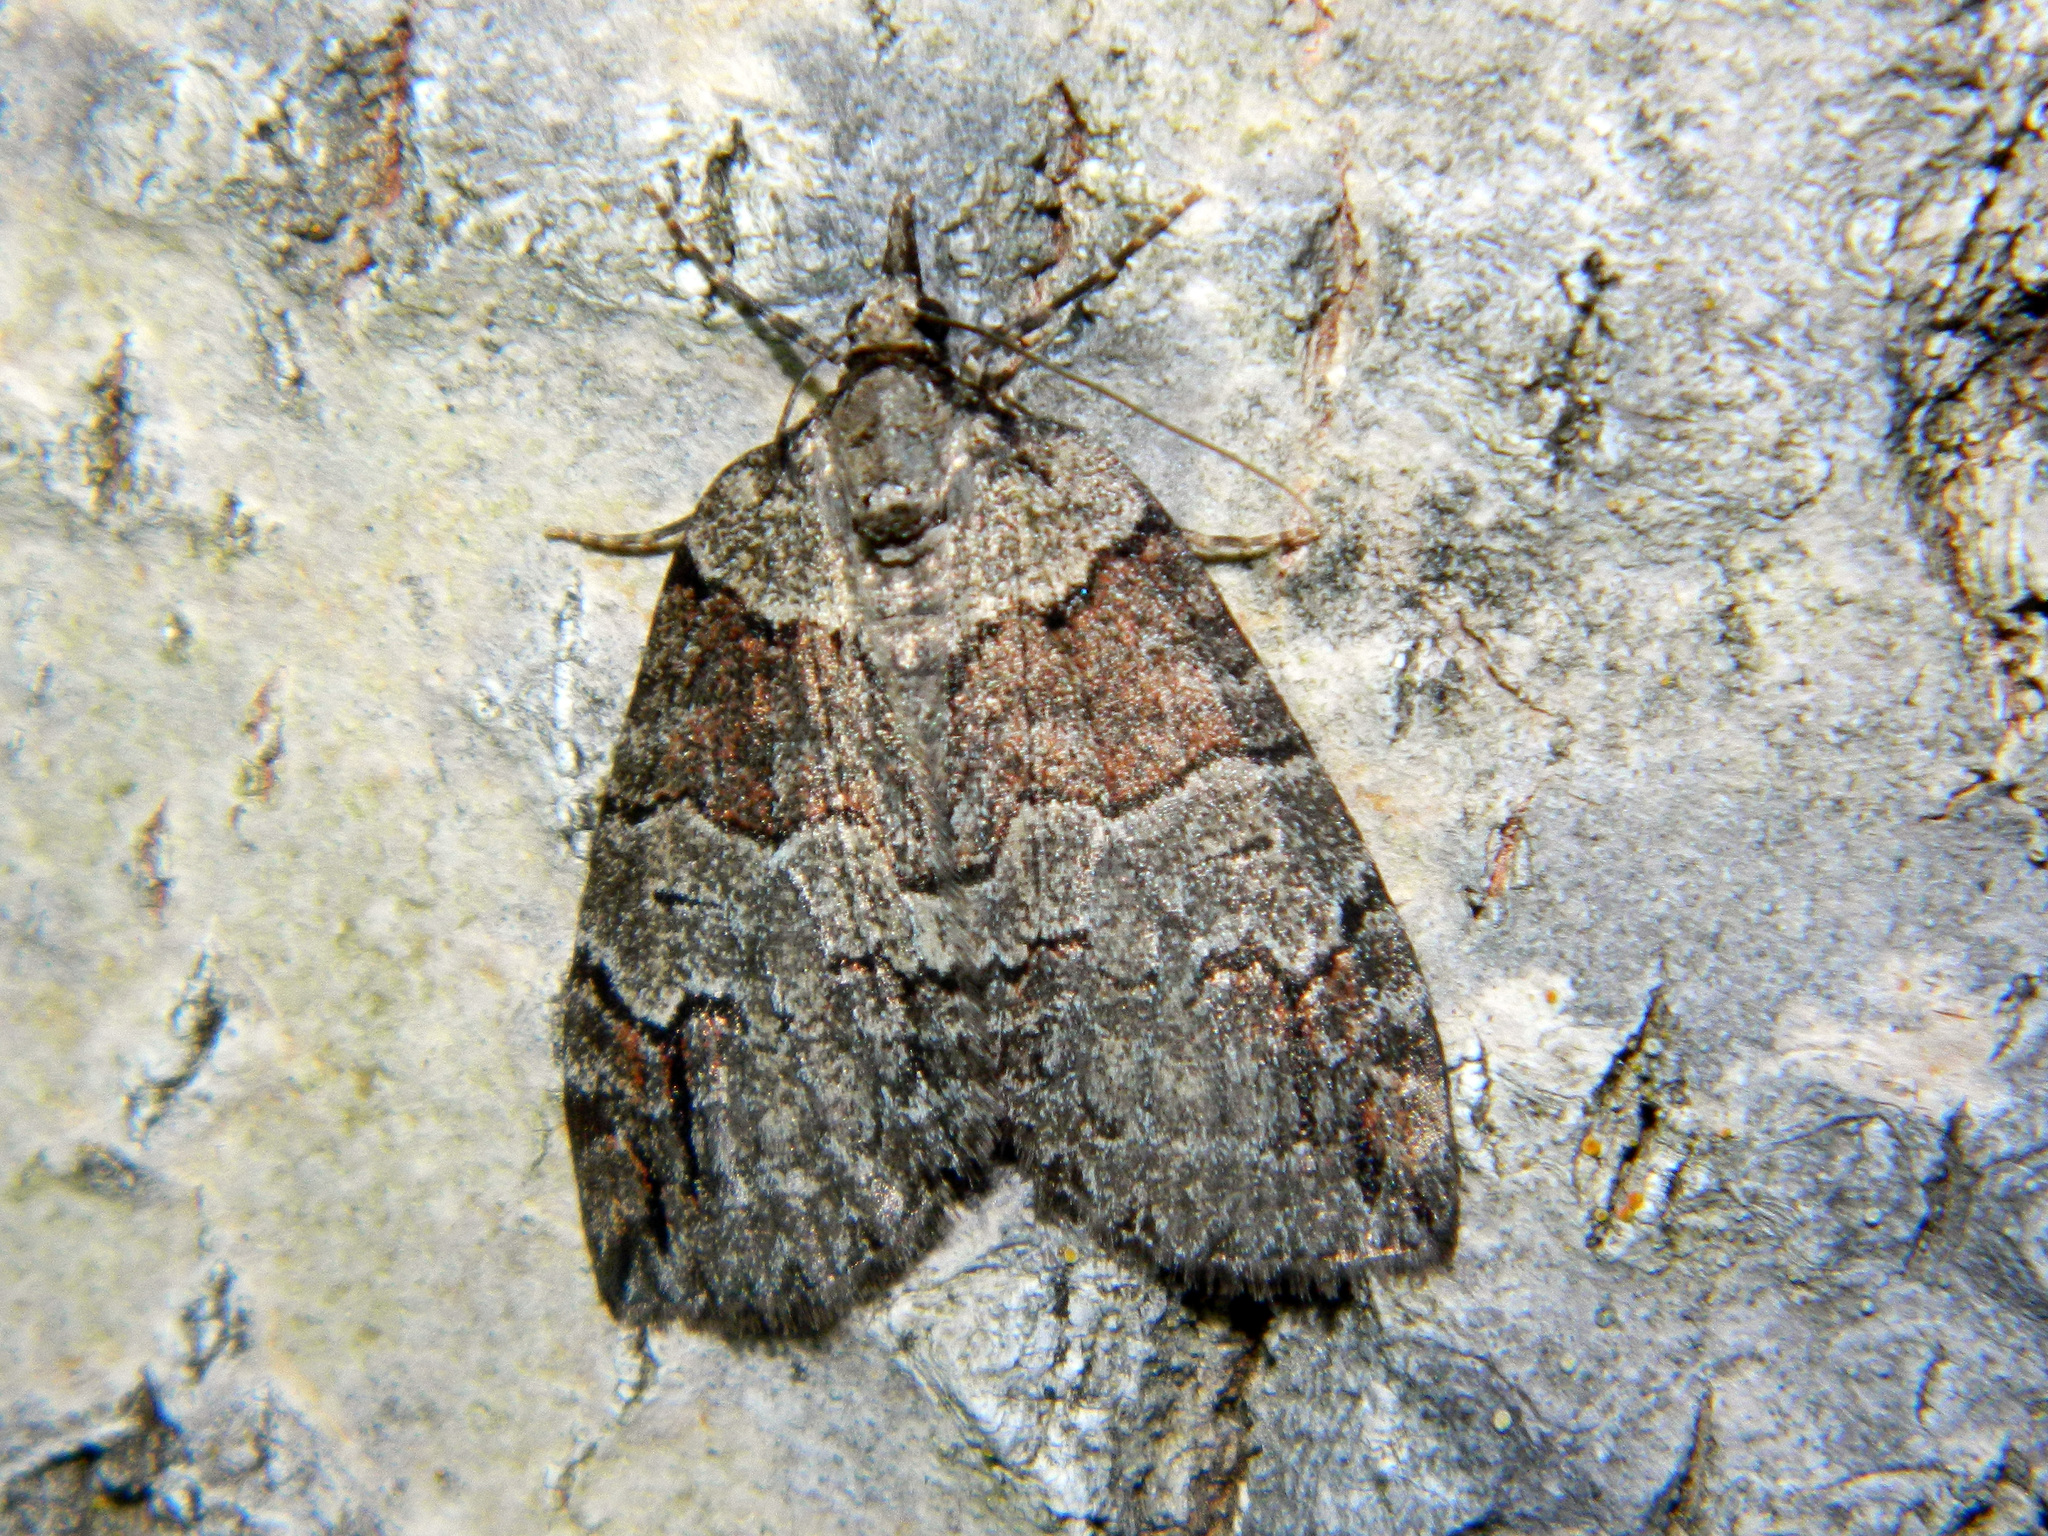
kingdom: Animalia
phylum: Arthropoda
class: Insecta
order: Lepidoptera
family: Geometridae
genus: Hydriomena
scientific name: Hydriomena ruberata
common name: Ruddy highflyer
